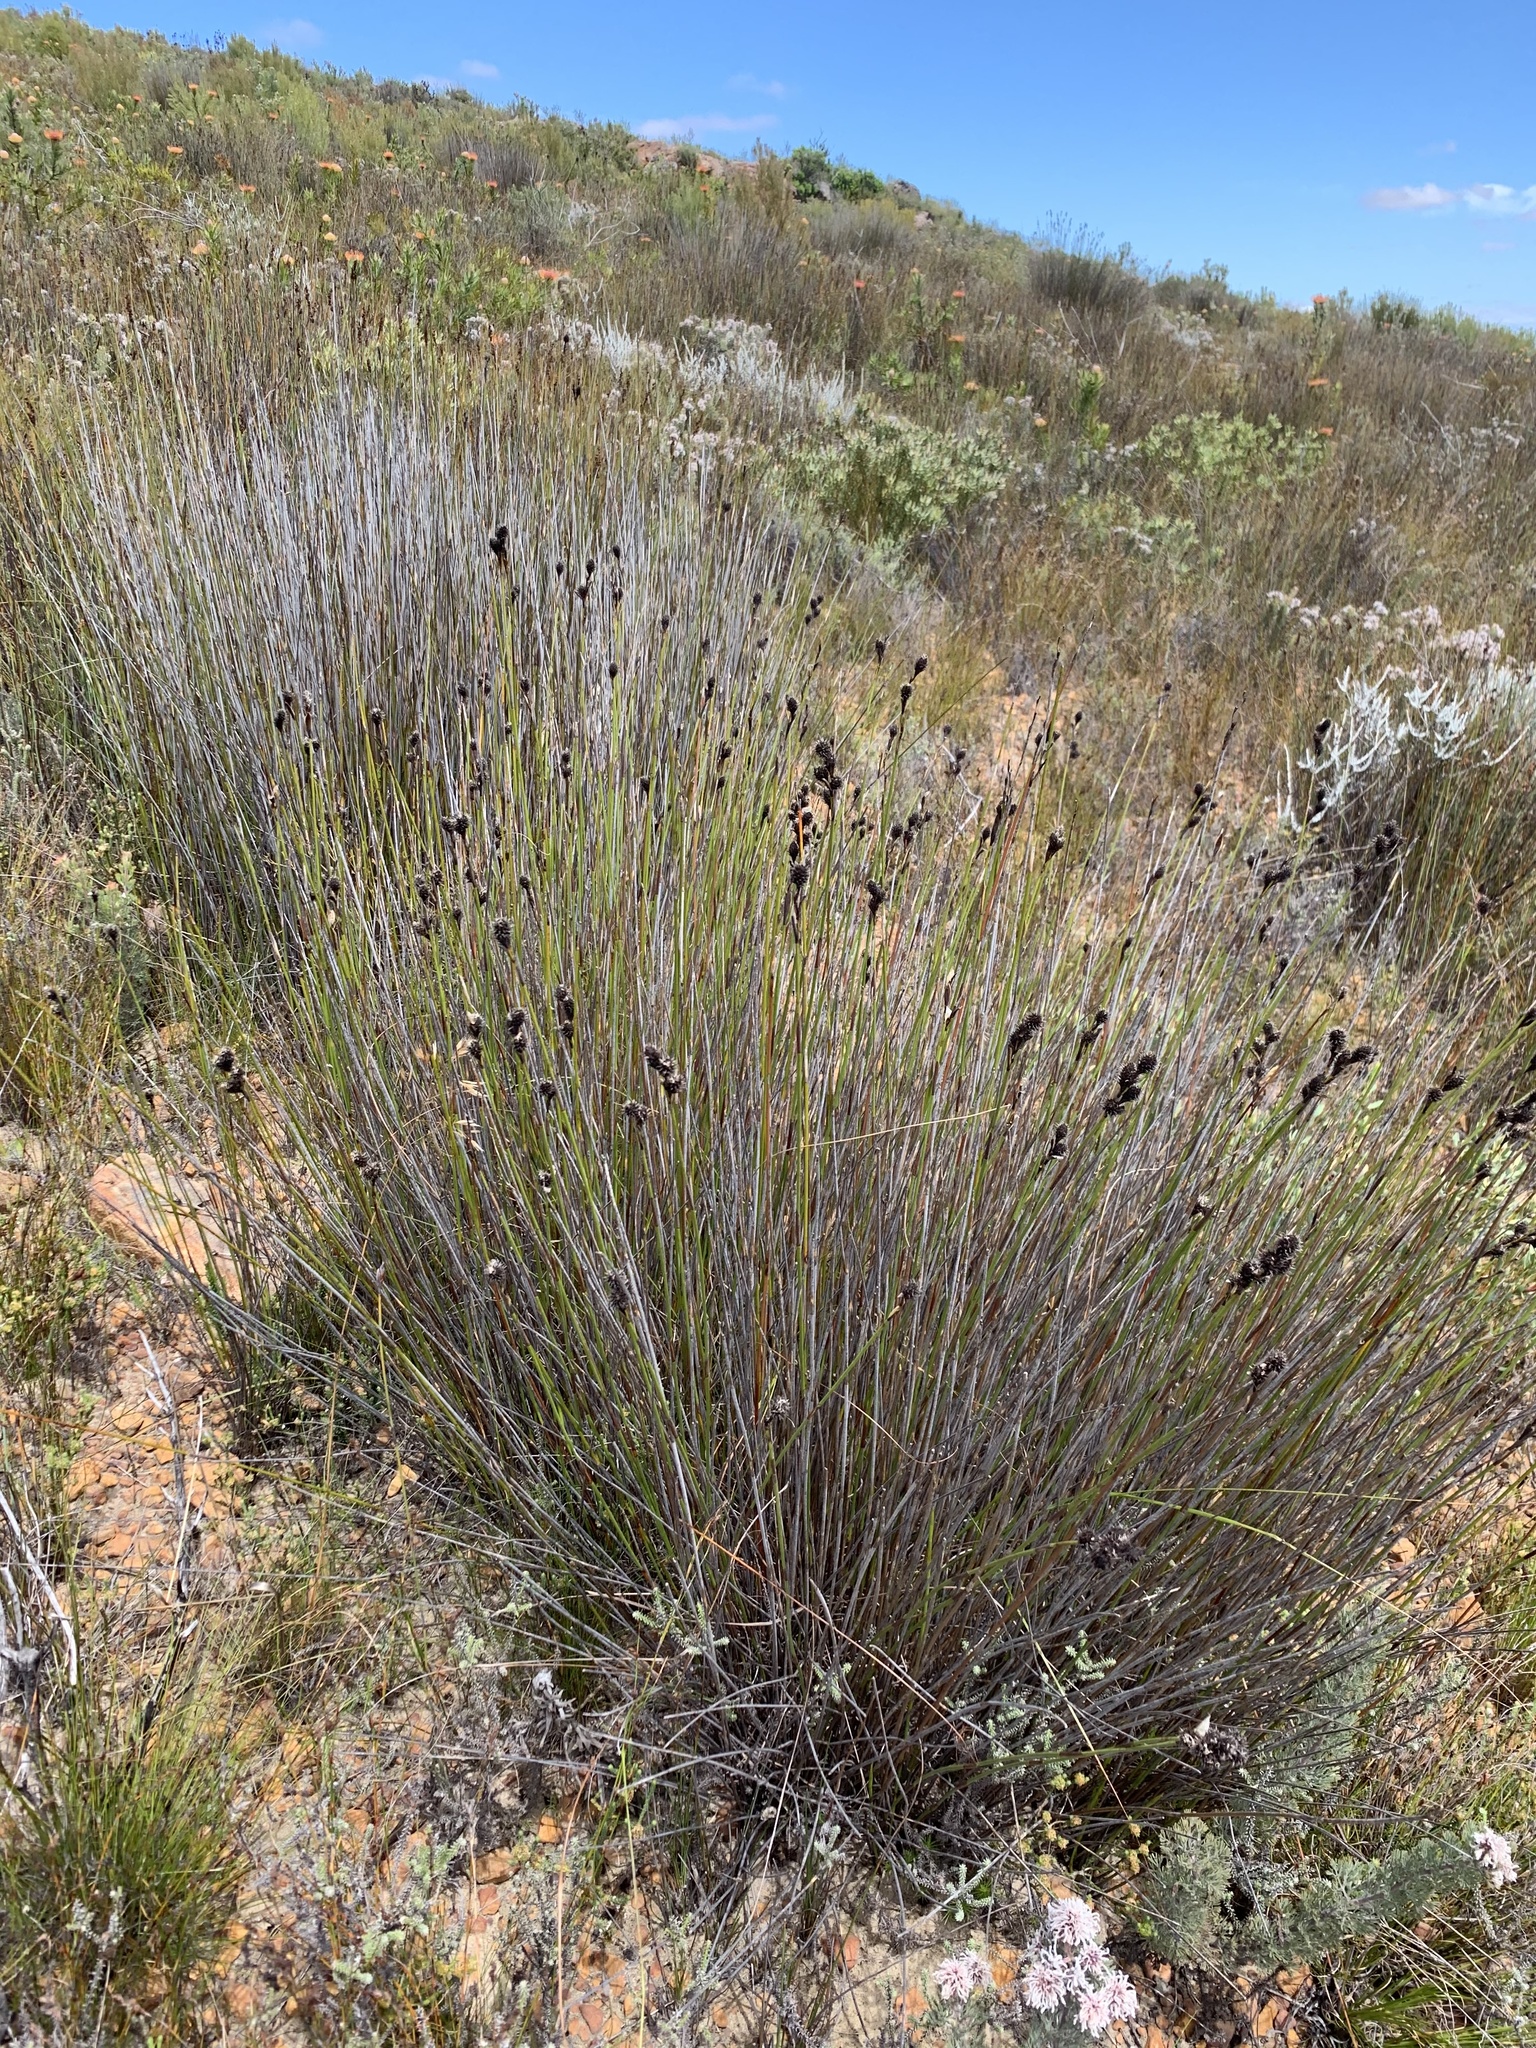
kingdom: Plantae
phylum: Tracheophyta
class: Liliopsida
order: Poales
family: Restionaceae
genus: Hypodiscus
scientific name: Hypodiscus aristatus
